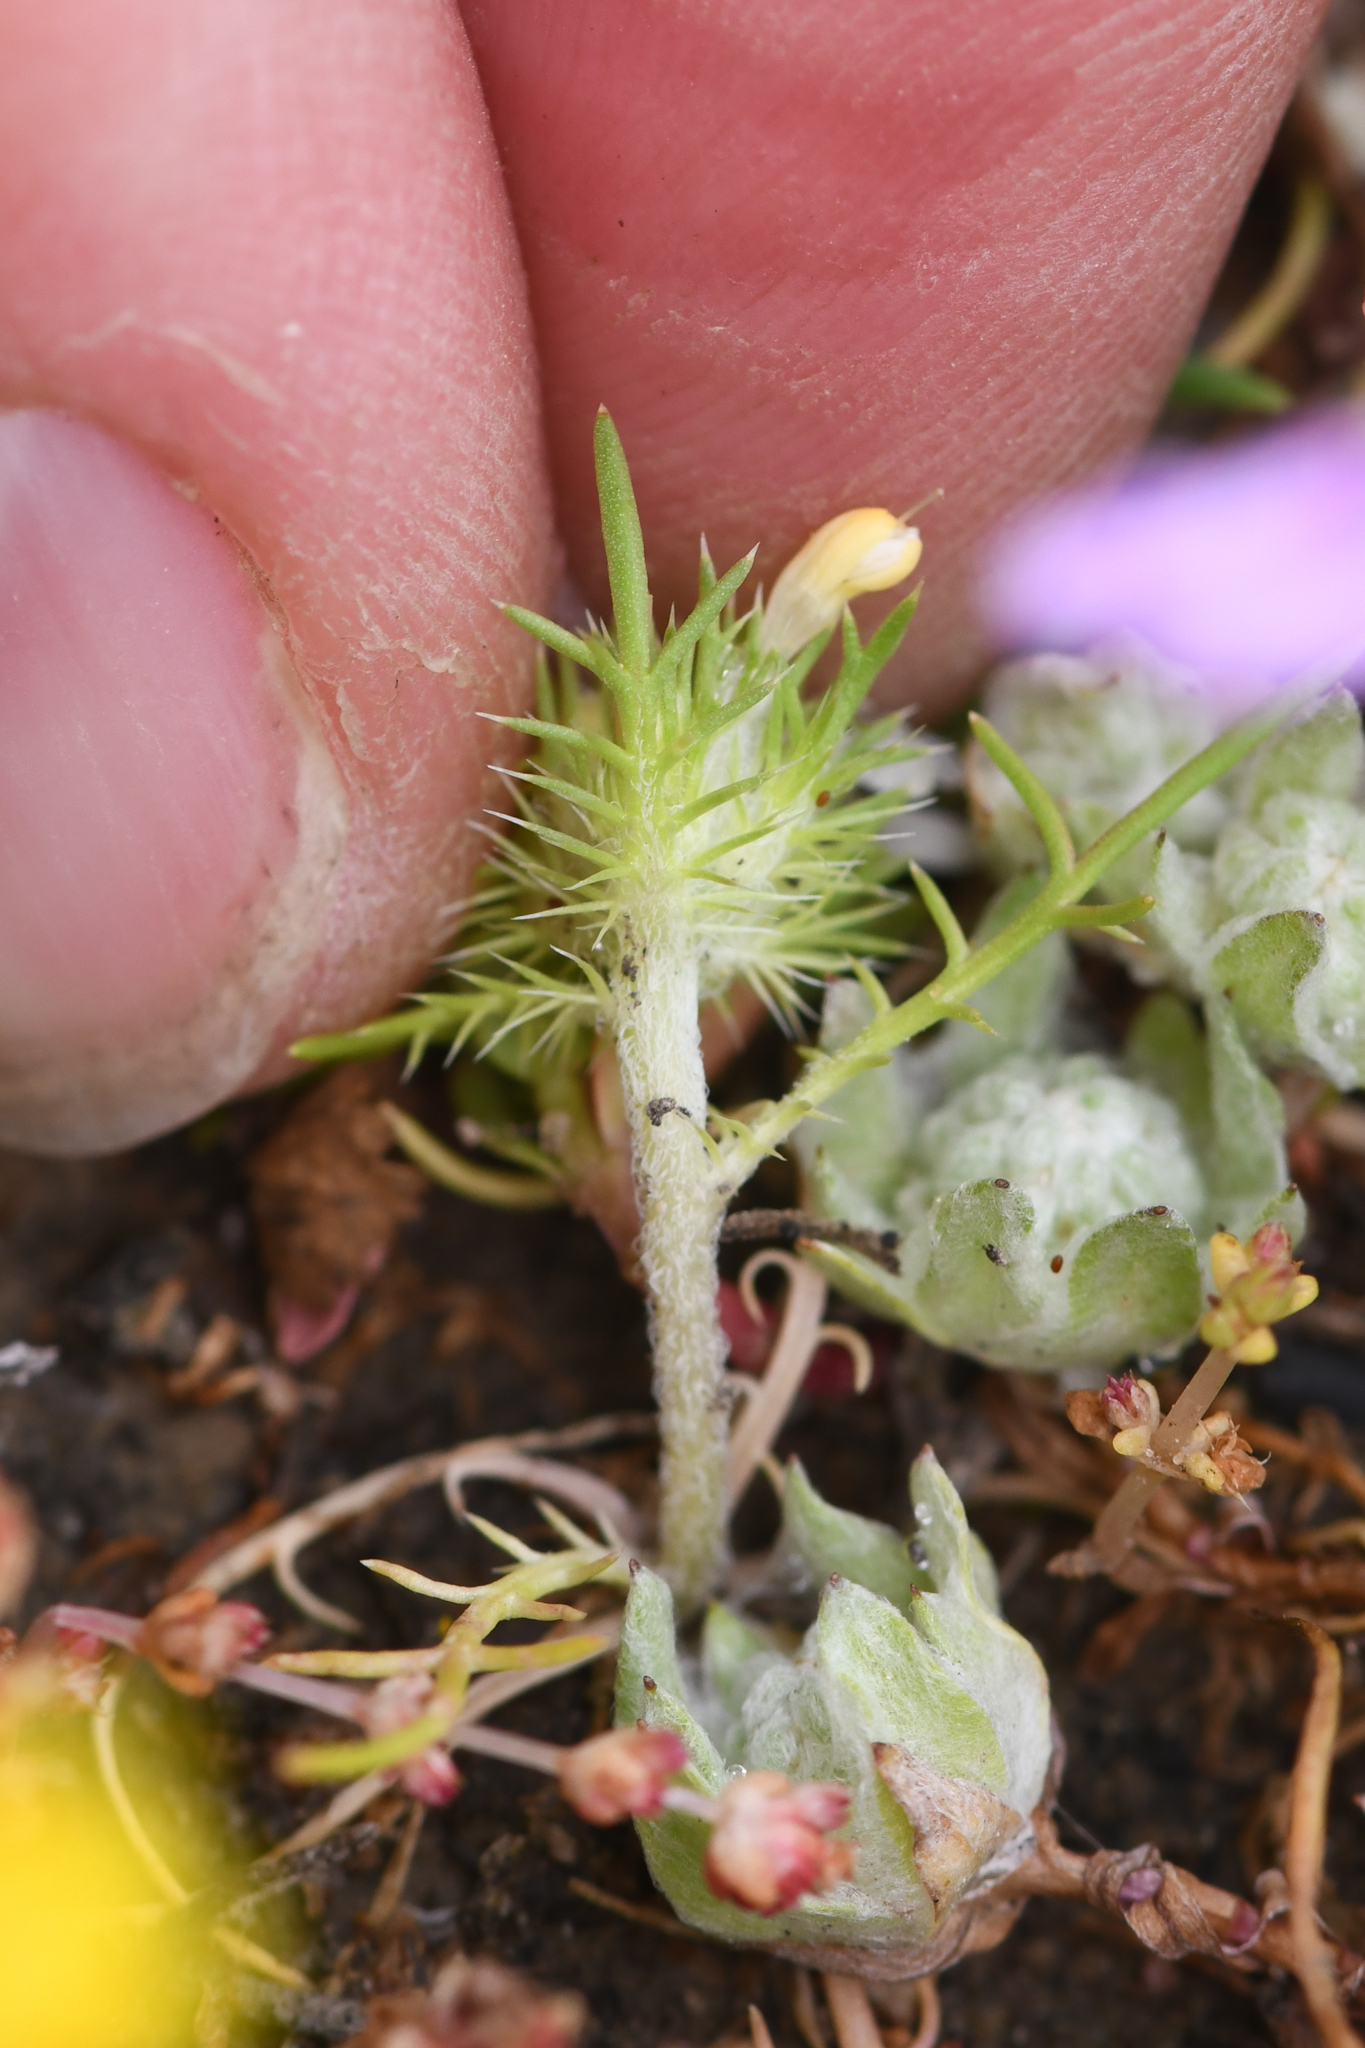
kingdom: Plantae
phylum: Tracheophyta
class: Magnoliopsida
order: Ericales
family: Polemoniaceae
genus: Navarretia
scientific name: Navarretia leucocephala
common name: White-flowered navarretia
